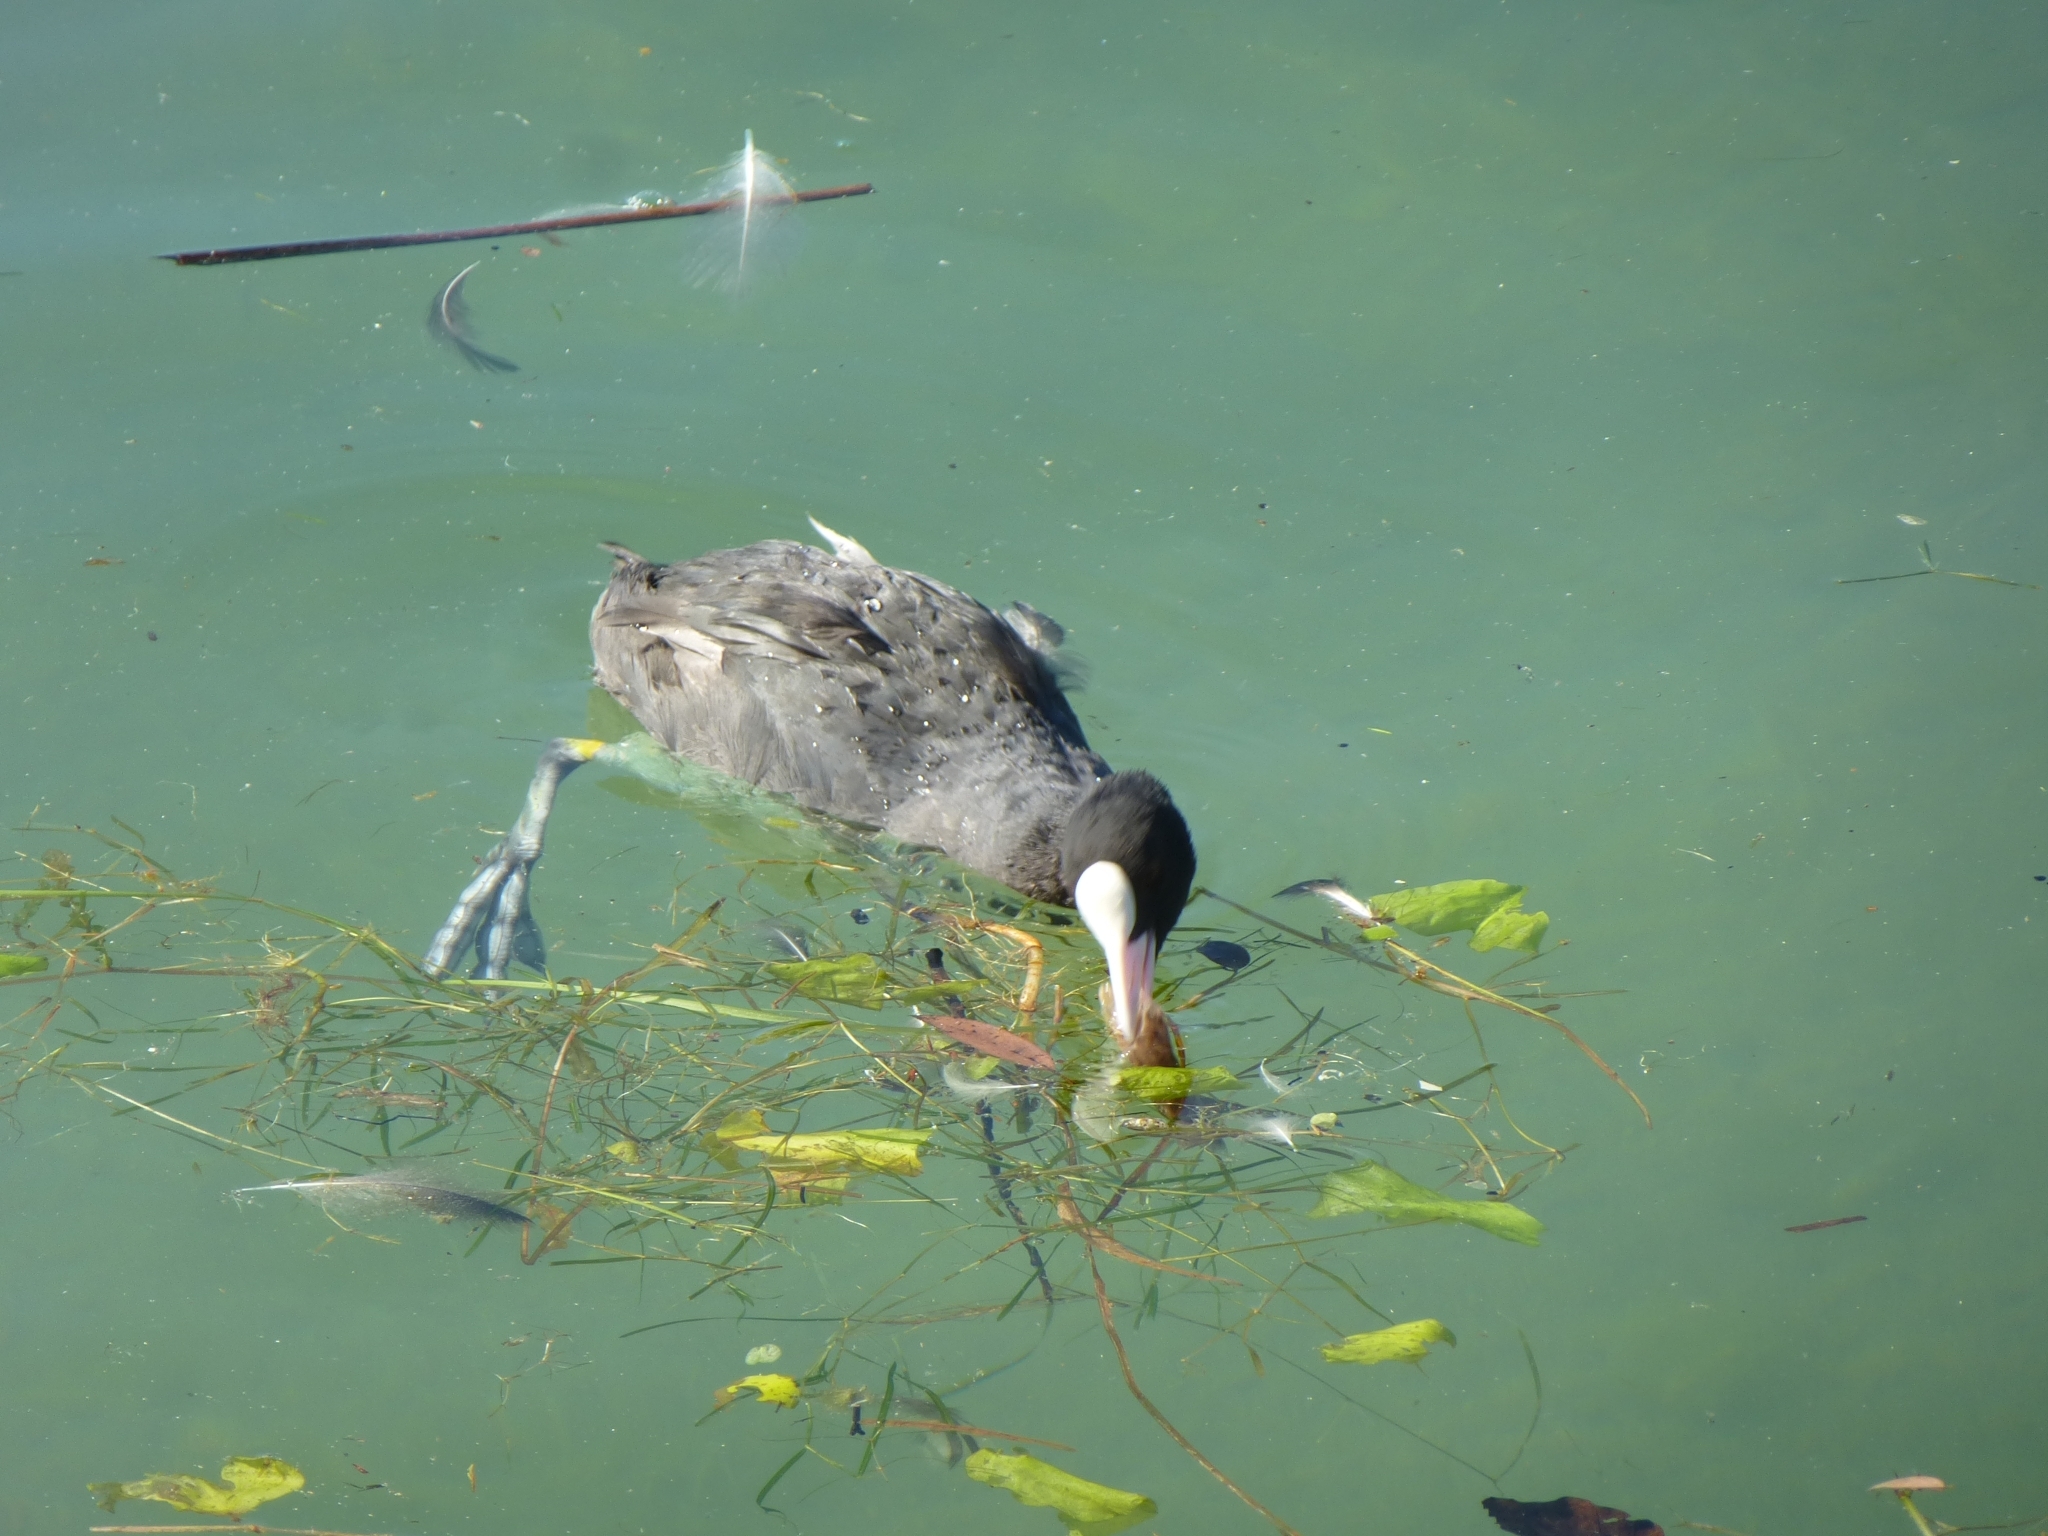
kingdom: Animalia
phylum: Chordata
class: Aves
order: Gruiformes
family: Rallidae
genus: Fulica
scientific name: Fulica atra
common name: Eurasian coot
